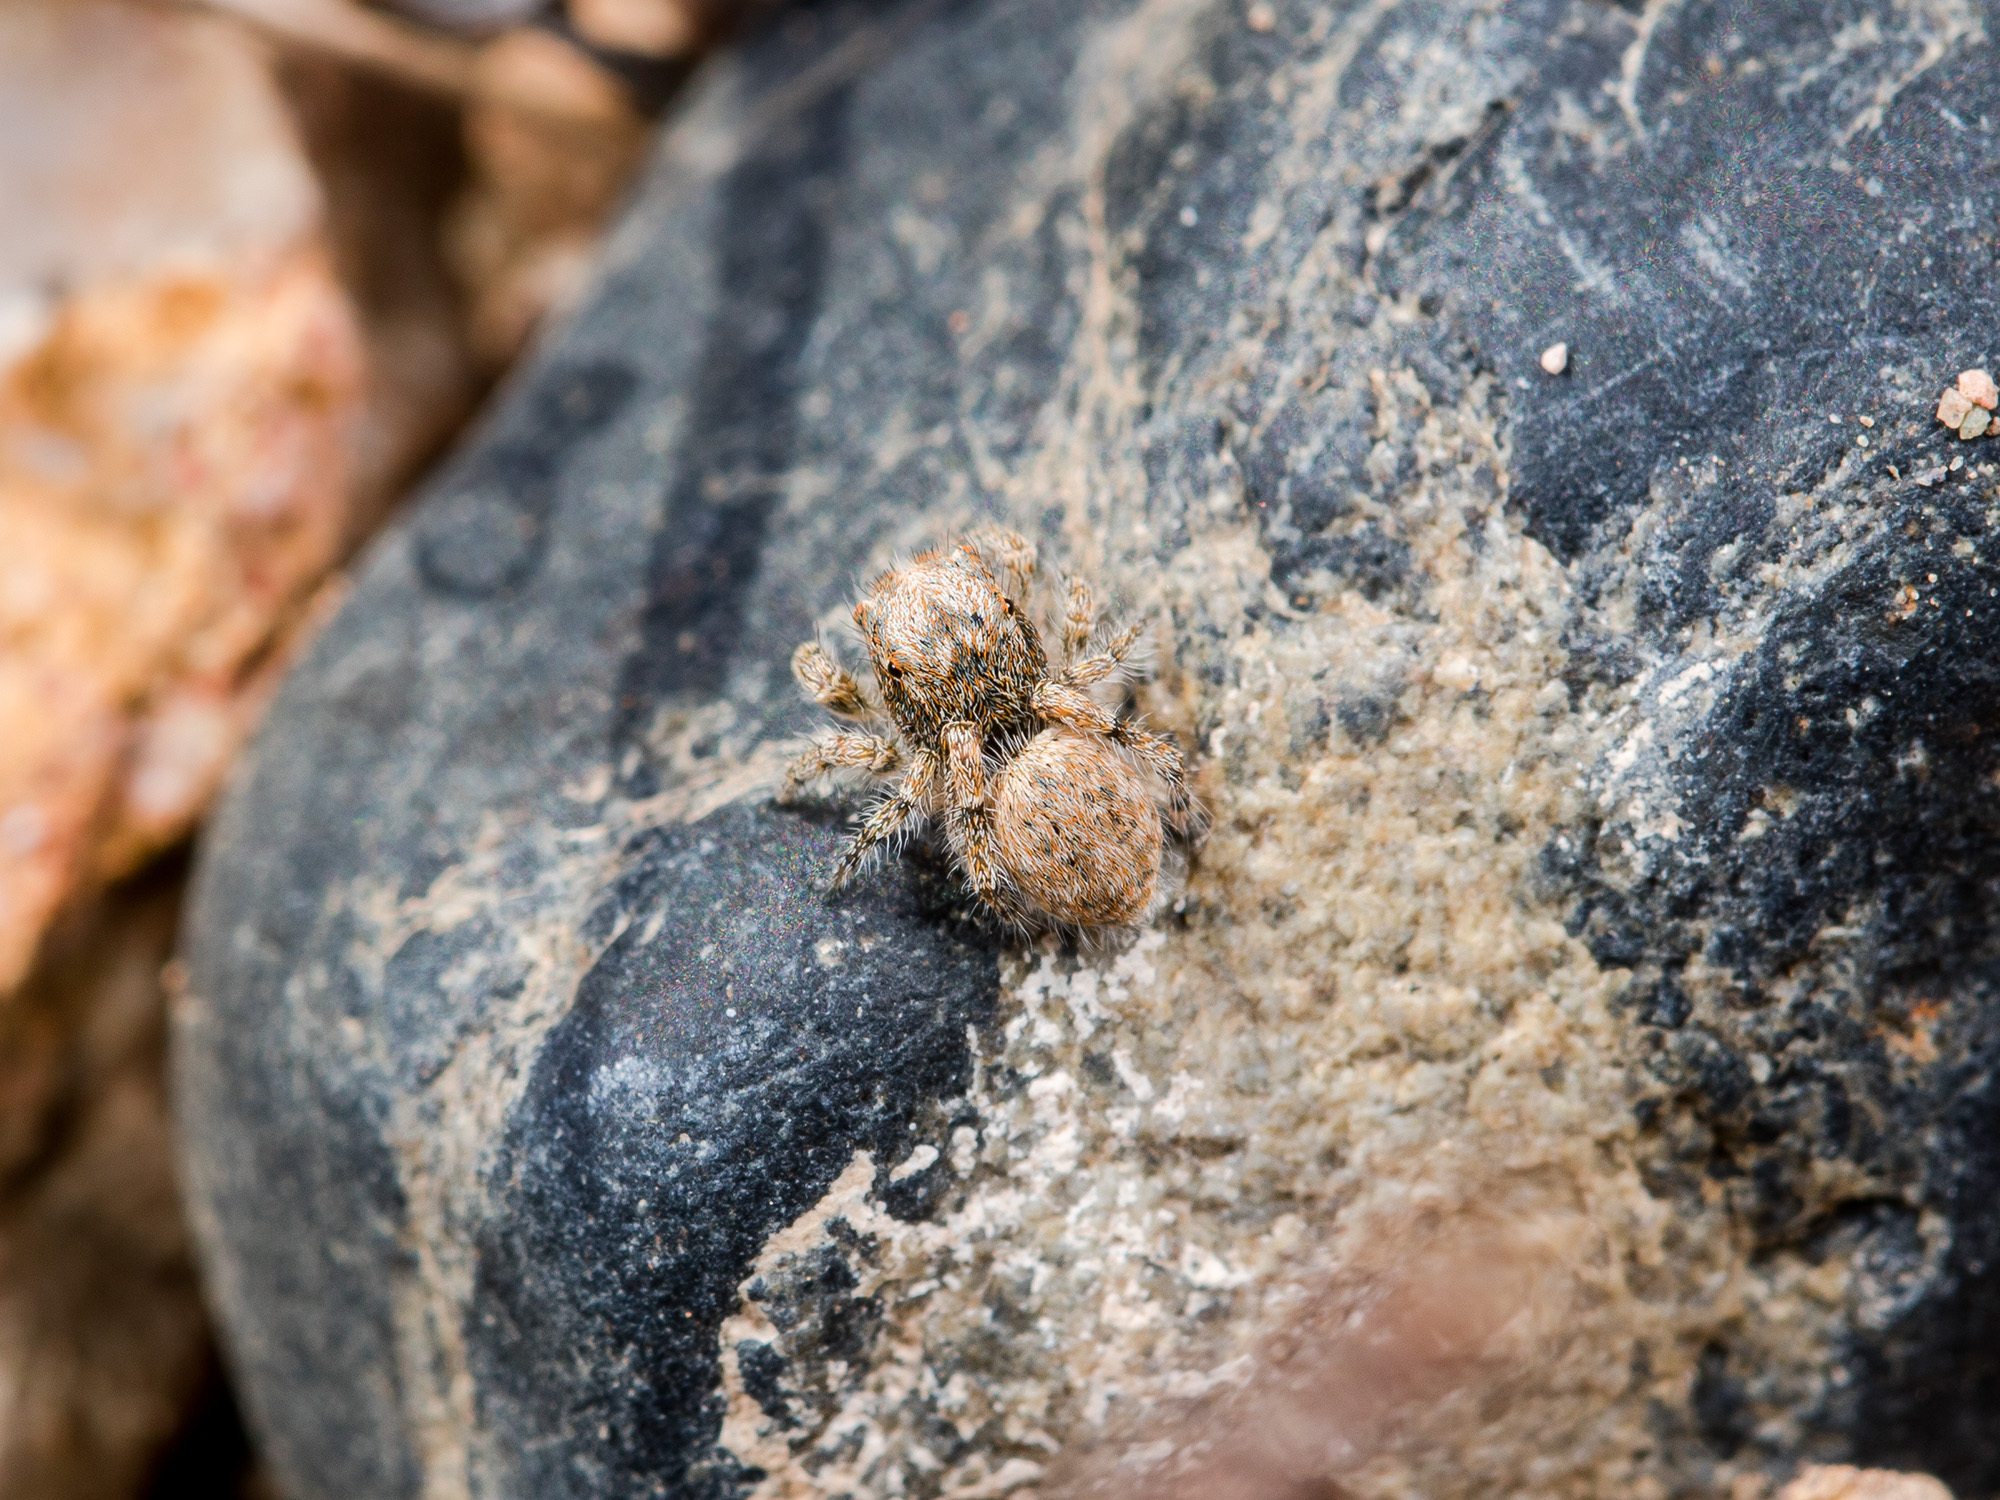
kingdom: Animalia
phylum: Arthropoda
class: Arachnida
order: Araneae
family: Salticidae
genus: Yllenus
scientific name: Yllenus charynensis
